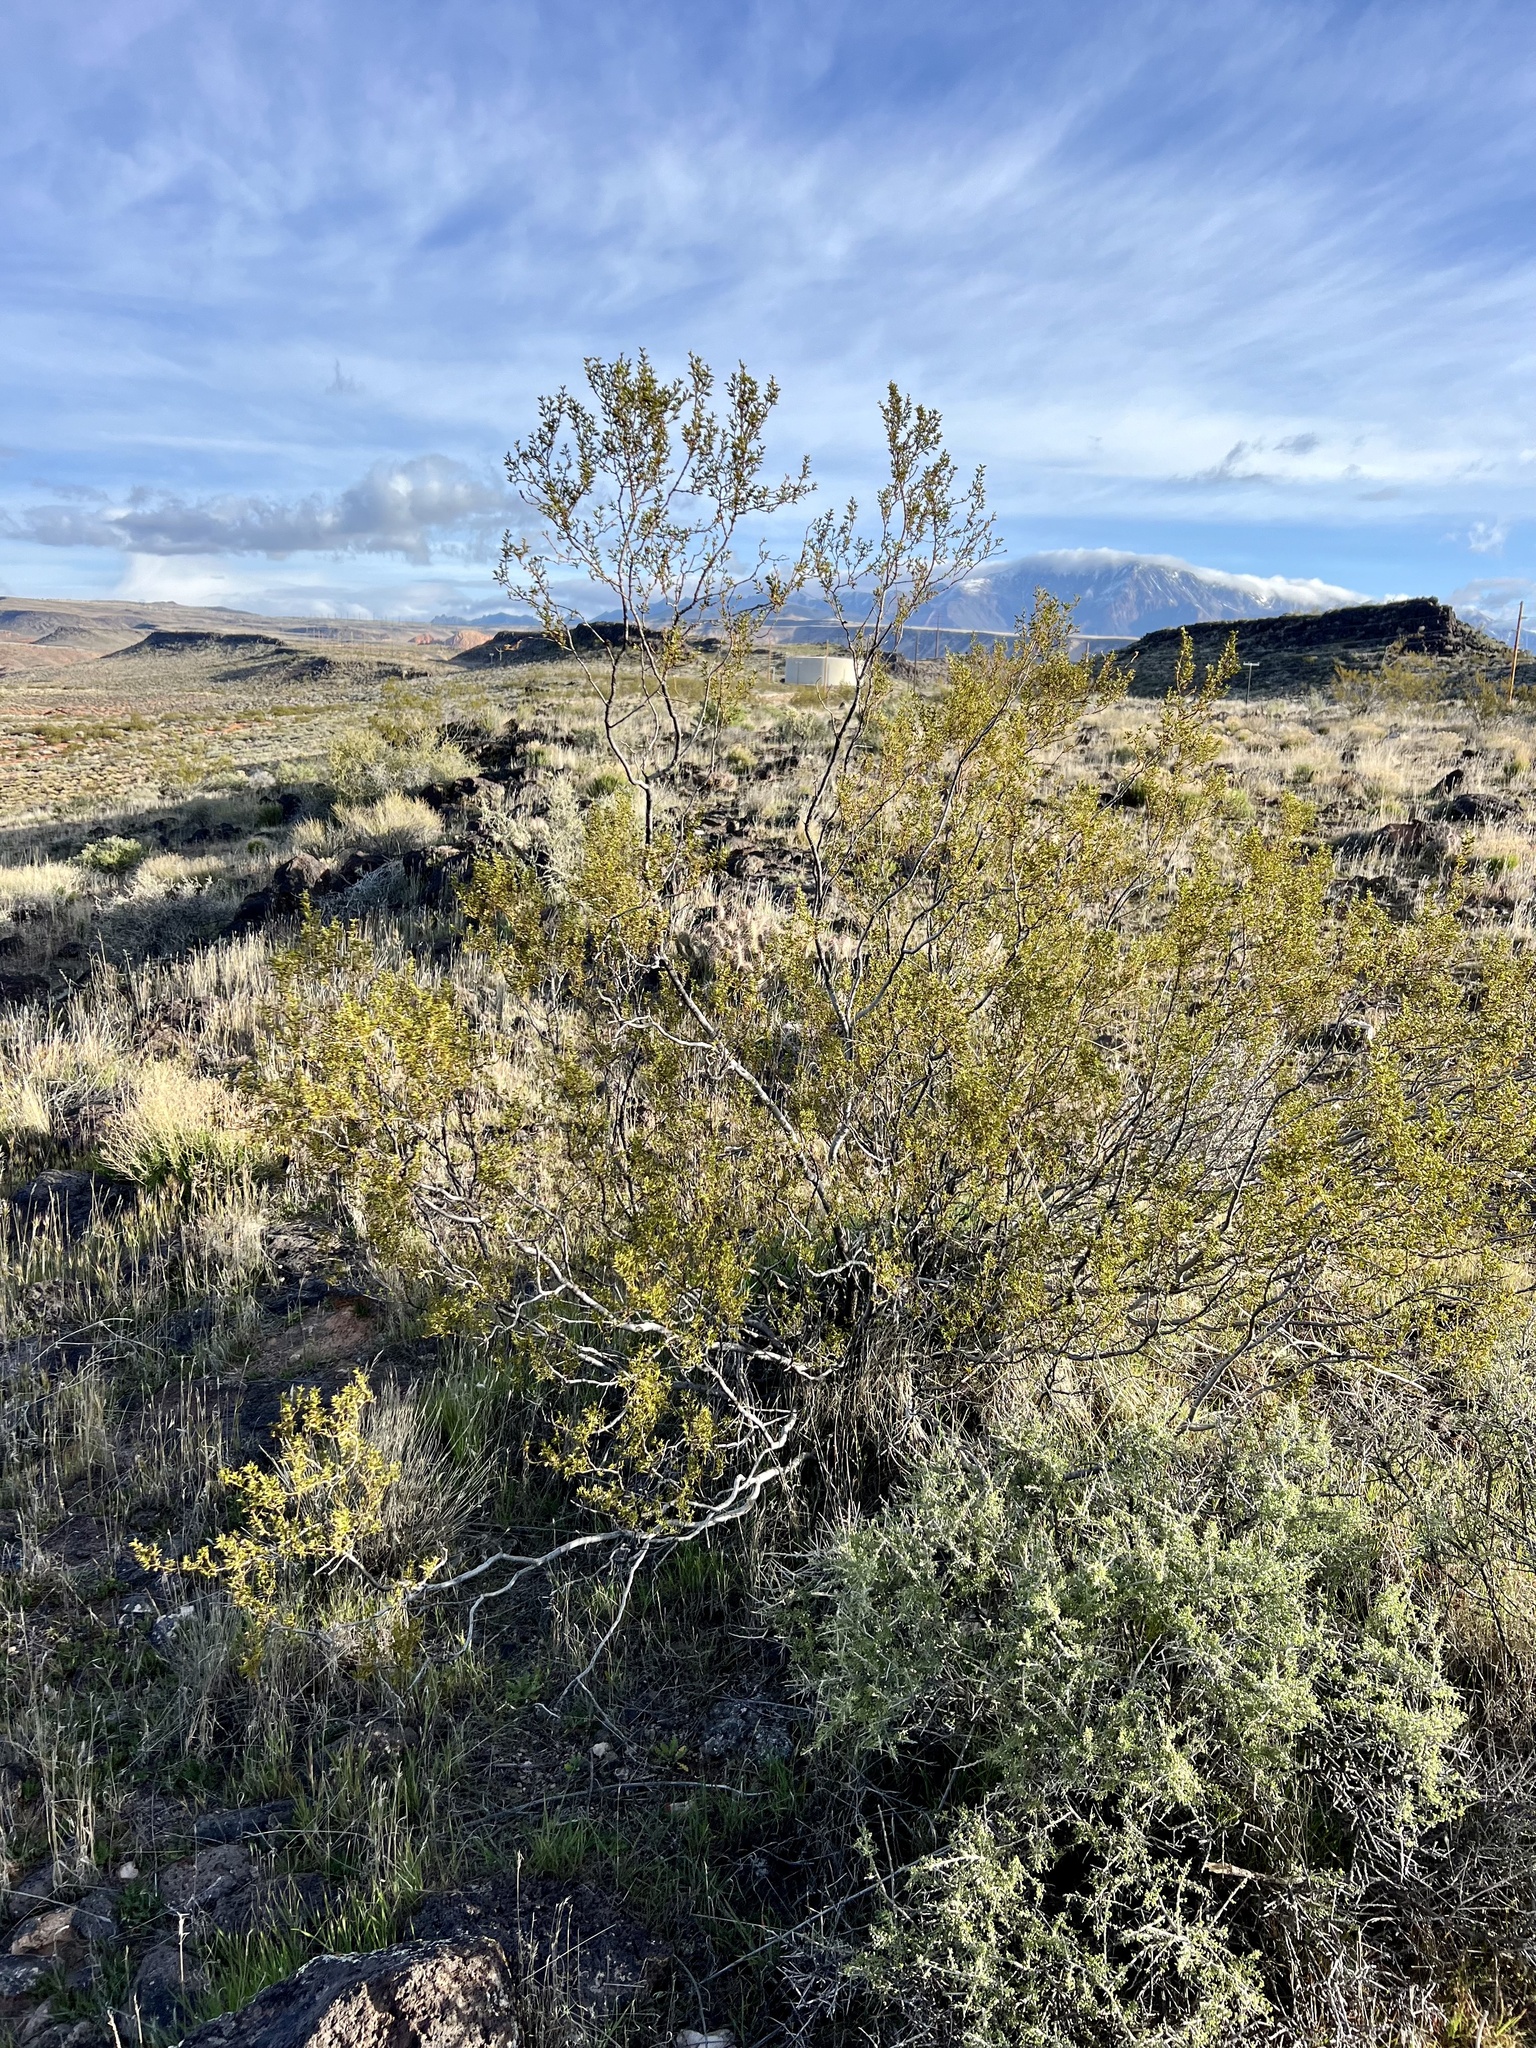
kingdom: Plantae
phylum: Tracheophyta
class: Magnoliopsida
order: Zygophyllales
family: Zygophyllaceae
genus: Larrea
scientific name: Larrea tridentata
